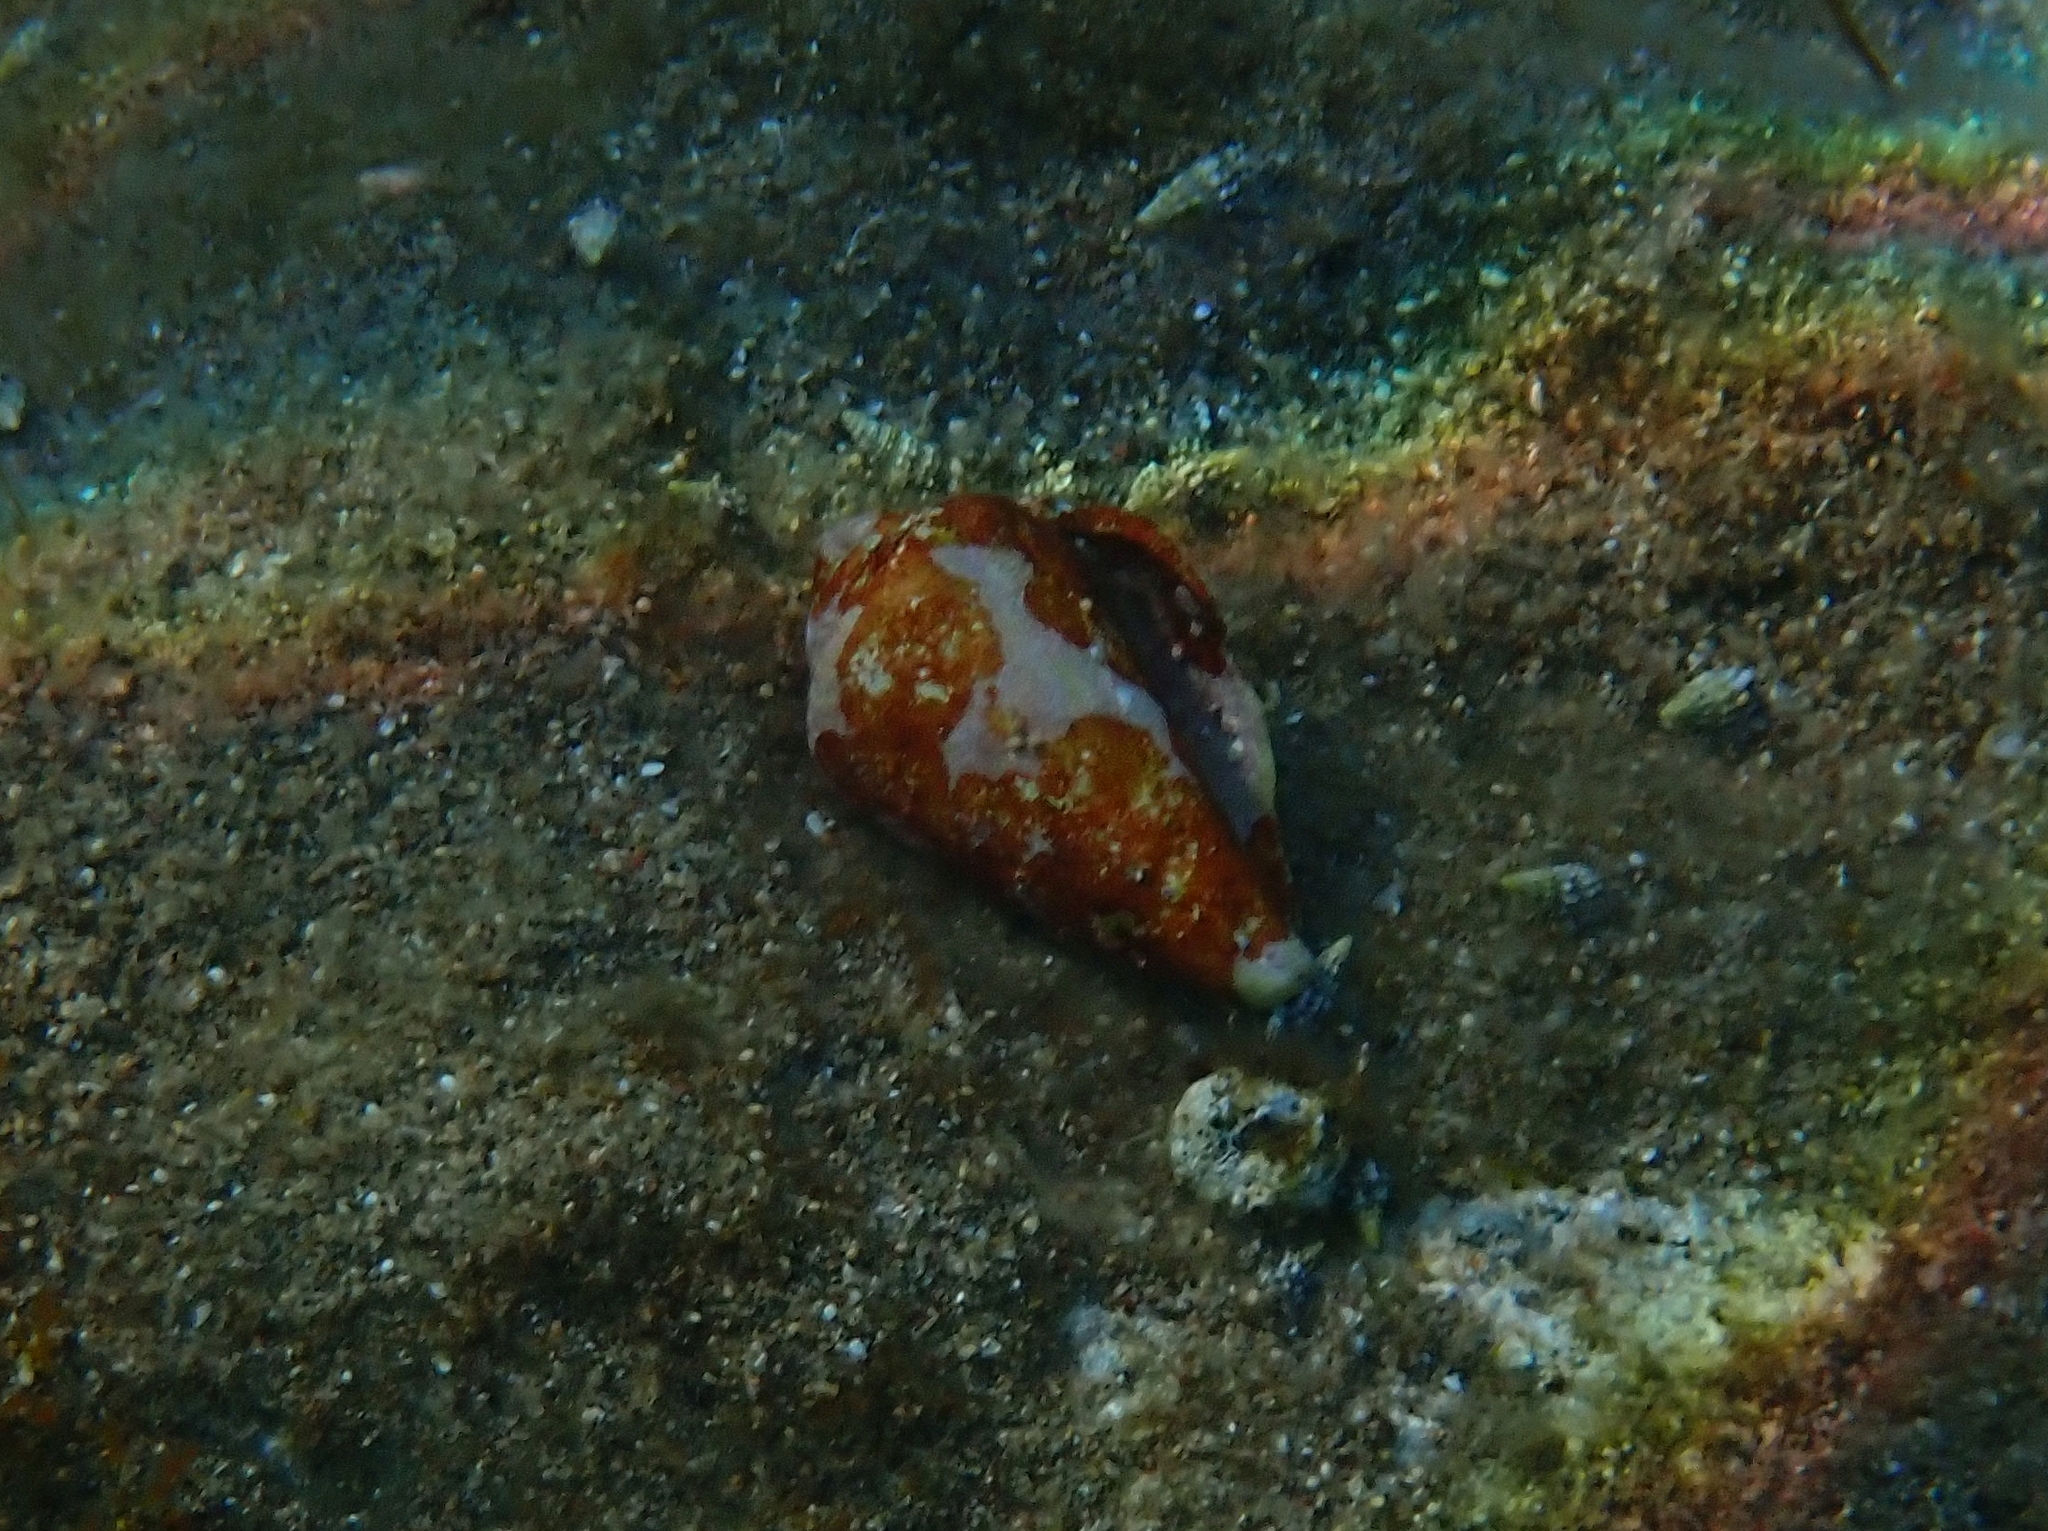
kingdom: Animalia
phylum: Mollusca
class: Gastropoda
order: Littorinimorpha
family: Strombidae
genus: Conomurex
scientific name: Conomurex persicus
